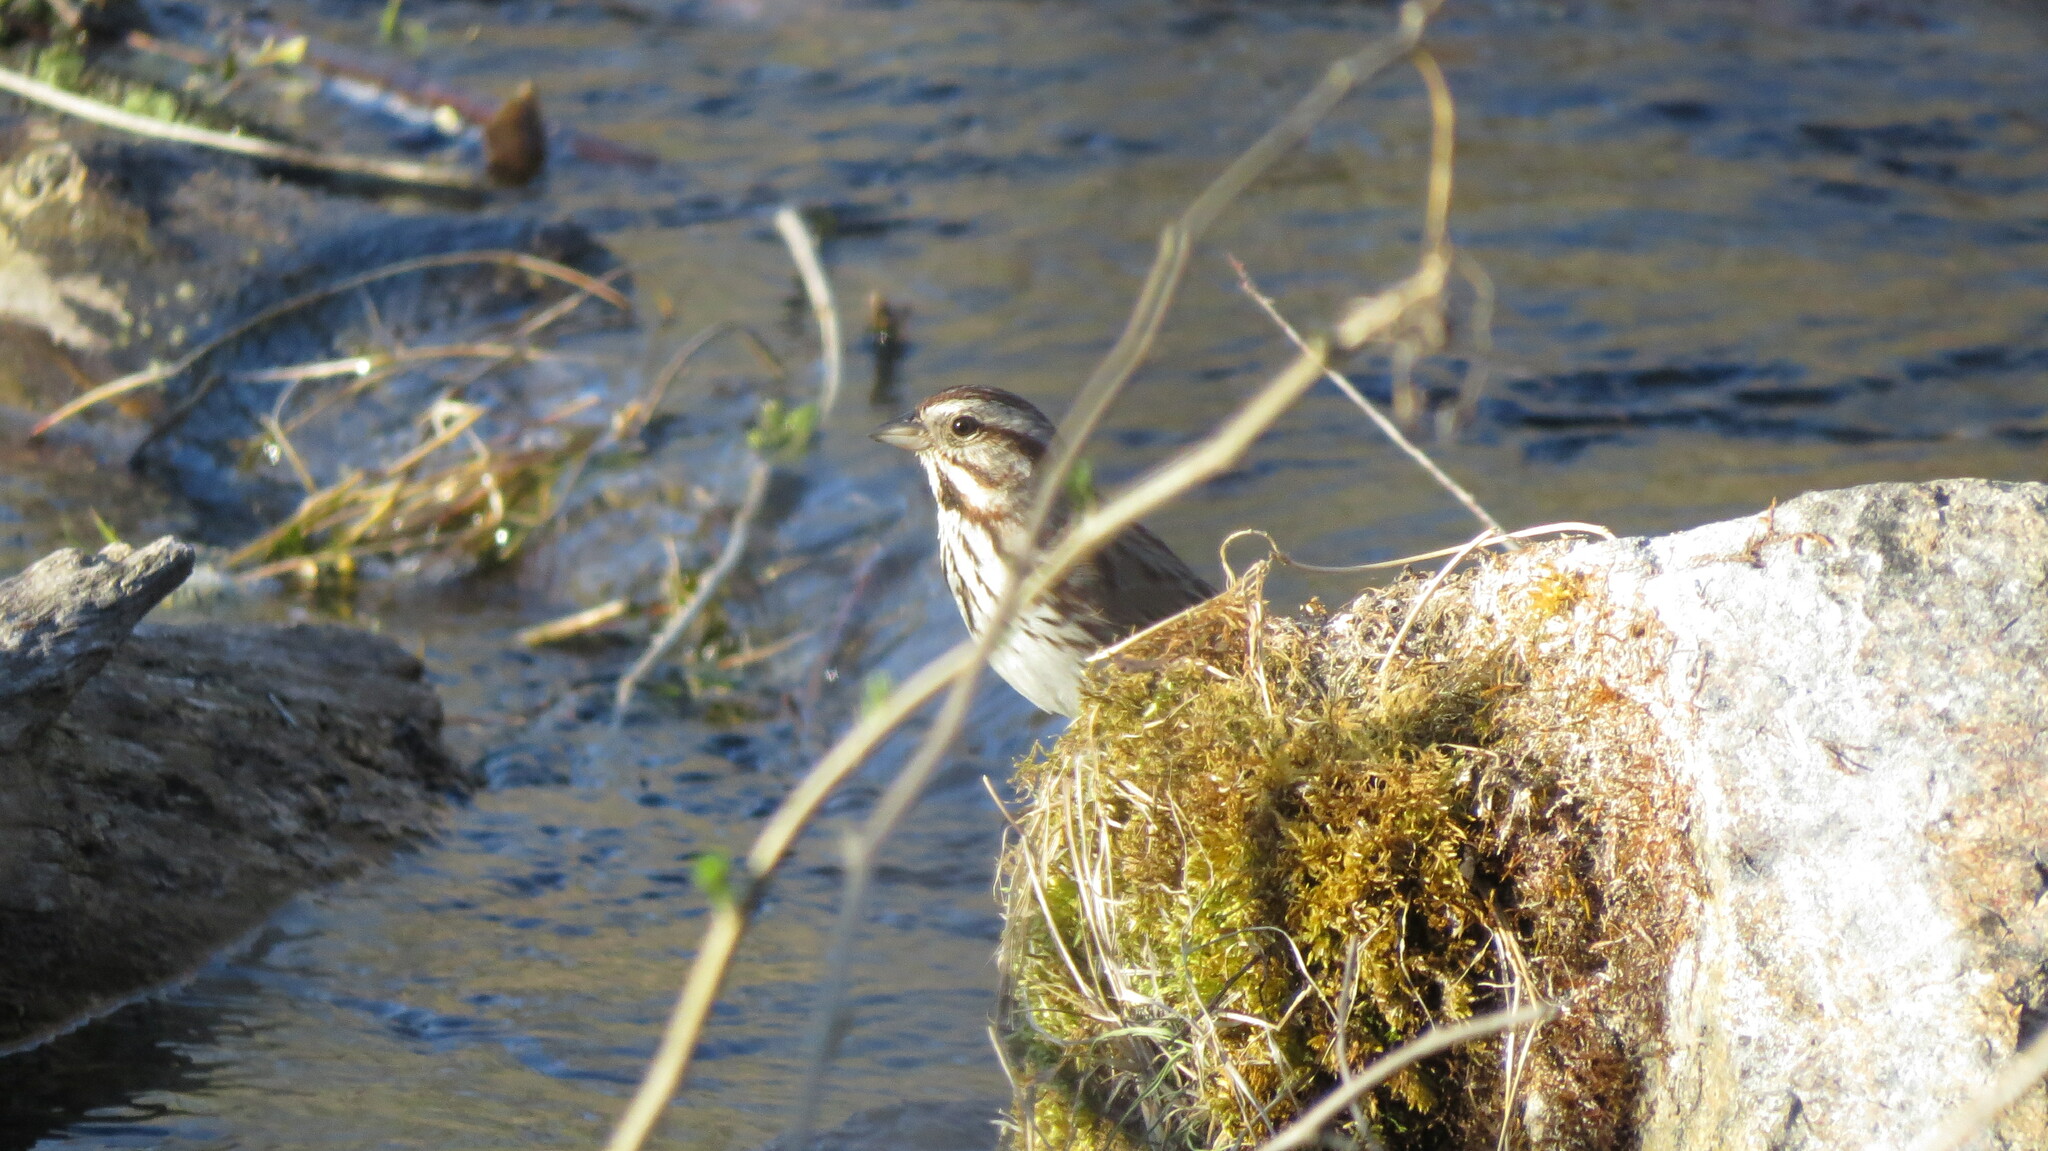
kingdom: Animalia
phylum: Chordata
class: Aves
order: Passeriformes
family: Passerellidae
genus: Melospiza
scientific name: Melospiza melodia
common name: Song sparrow
